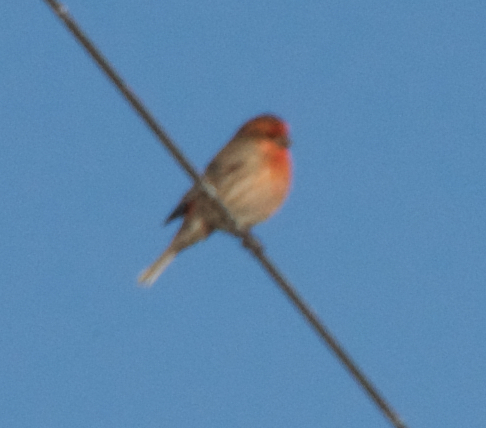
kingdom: Animalia
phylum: Chordata
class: Aves
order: Passeriformes
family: Fringillidae
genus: Haemorhous
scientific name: Haemorhous mexicanus
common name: House finch
